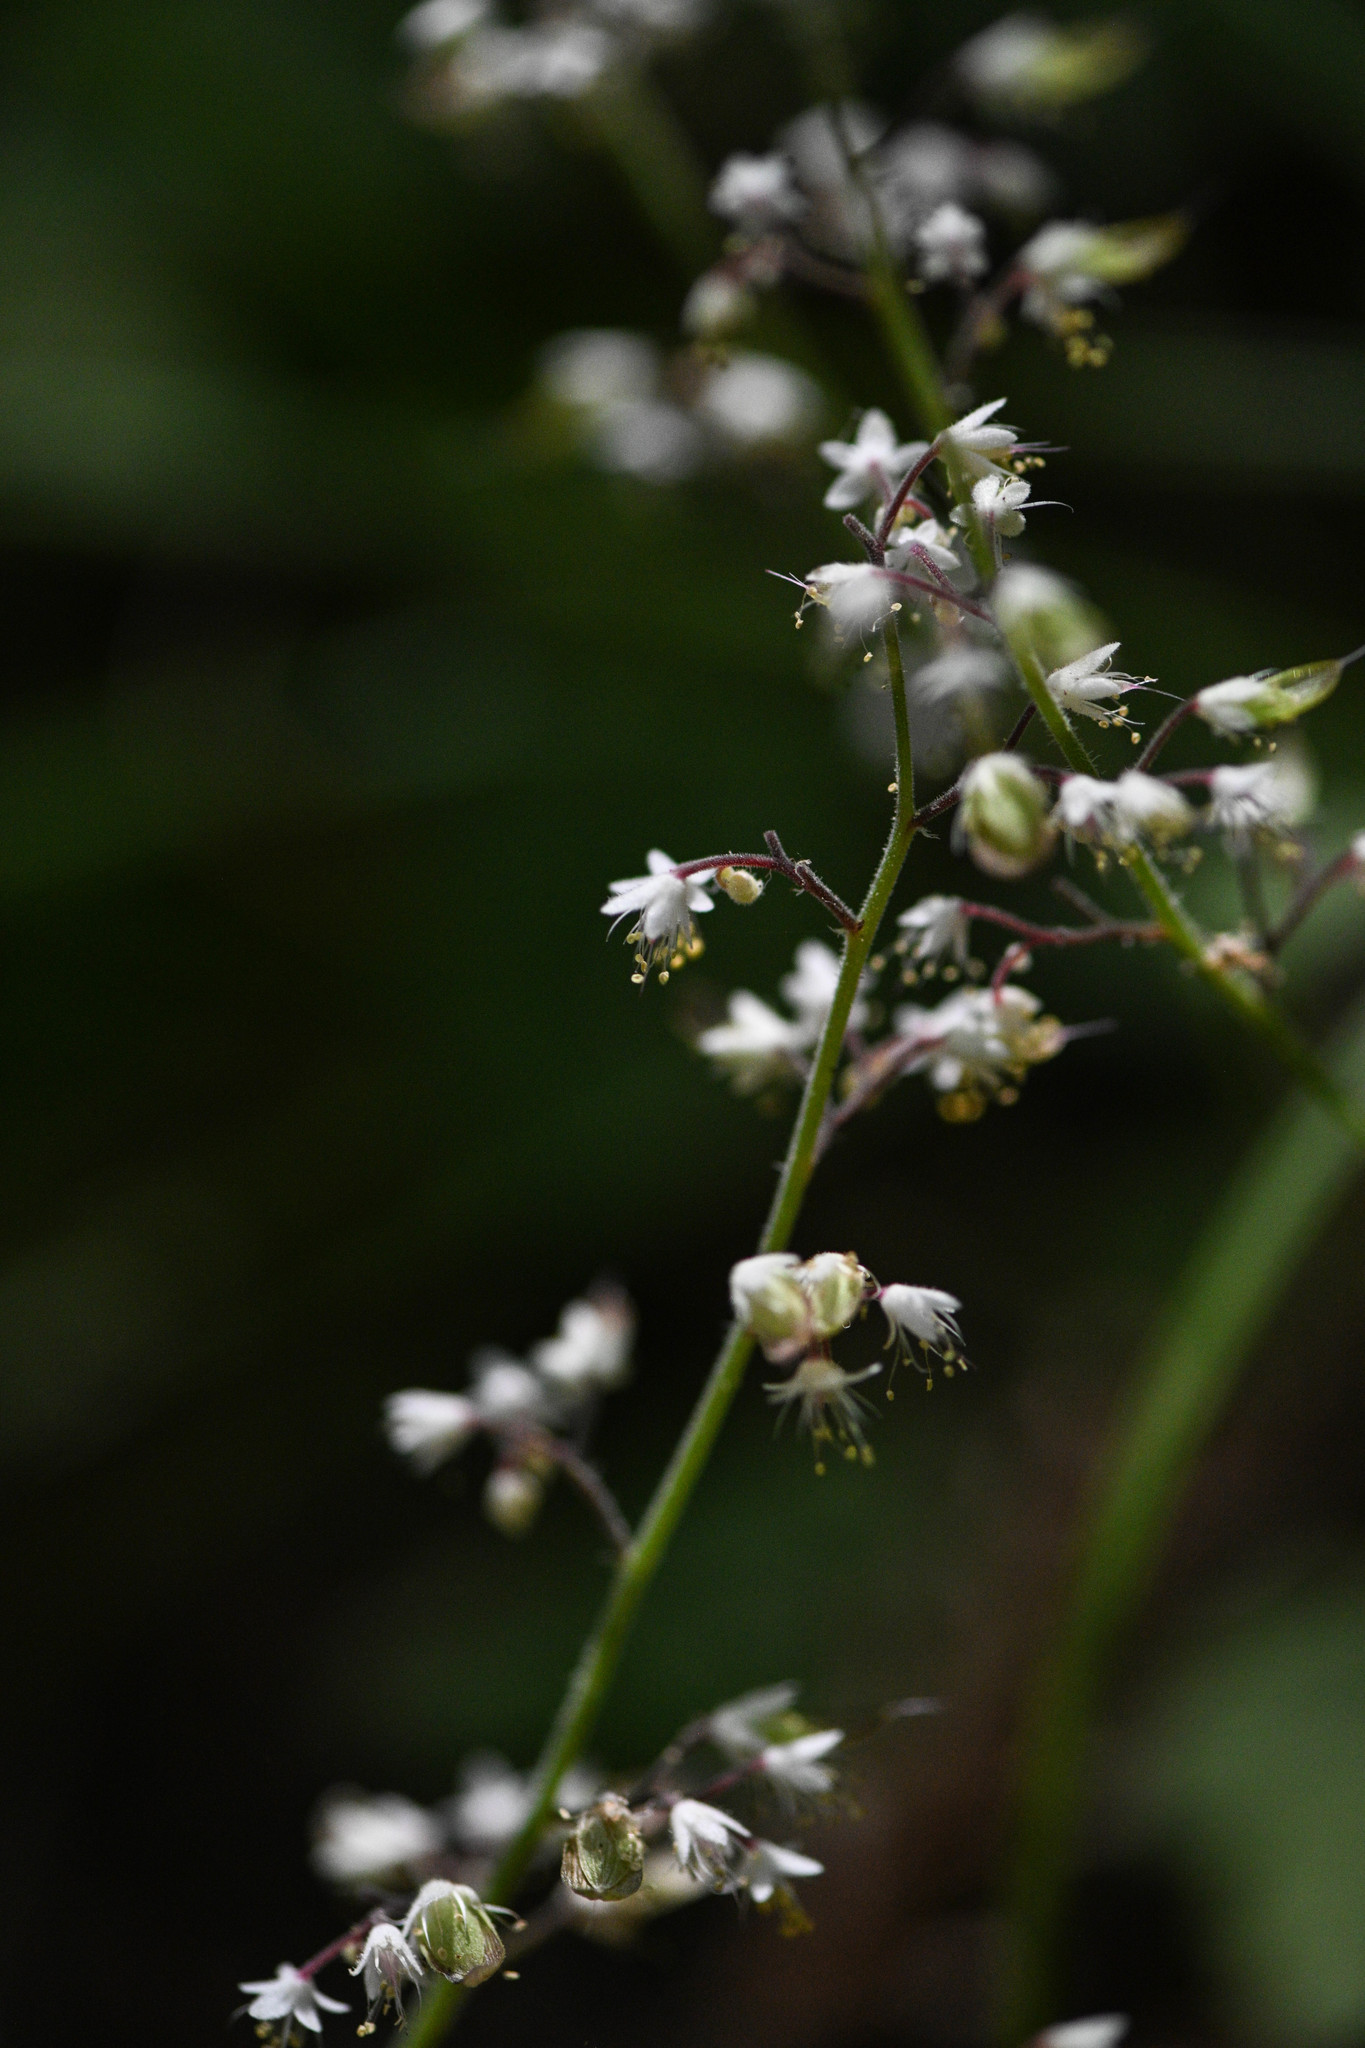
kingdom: Plantae
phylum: Tracheophyta
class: Magnoliopsida
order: Saxifragales
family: Saxifragaceae
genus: Tiarella
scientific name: Tiarella trifoliata
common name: Sugar-scoop
